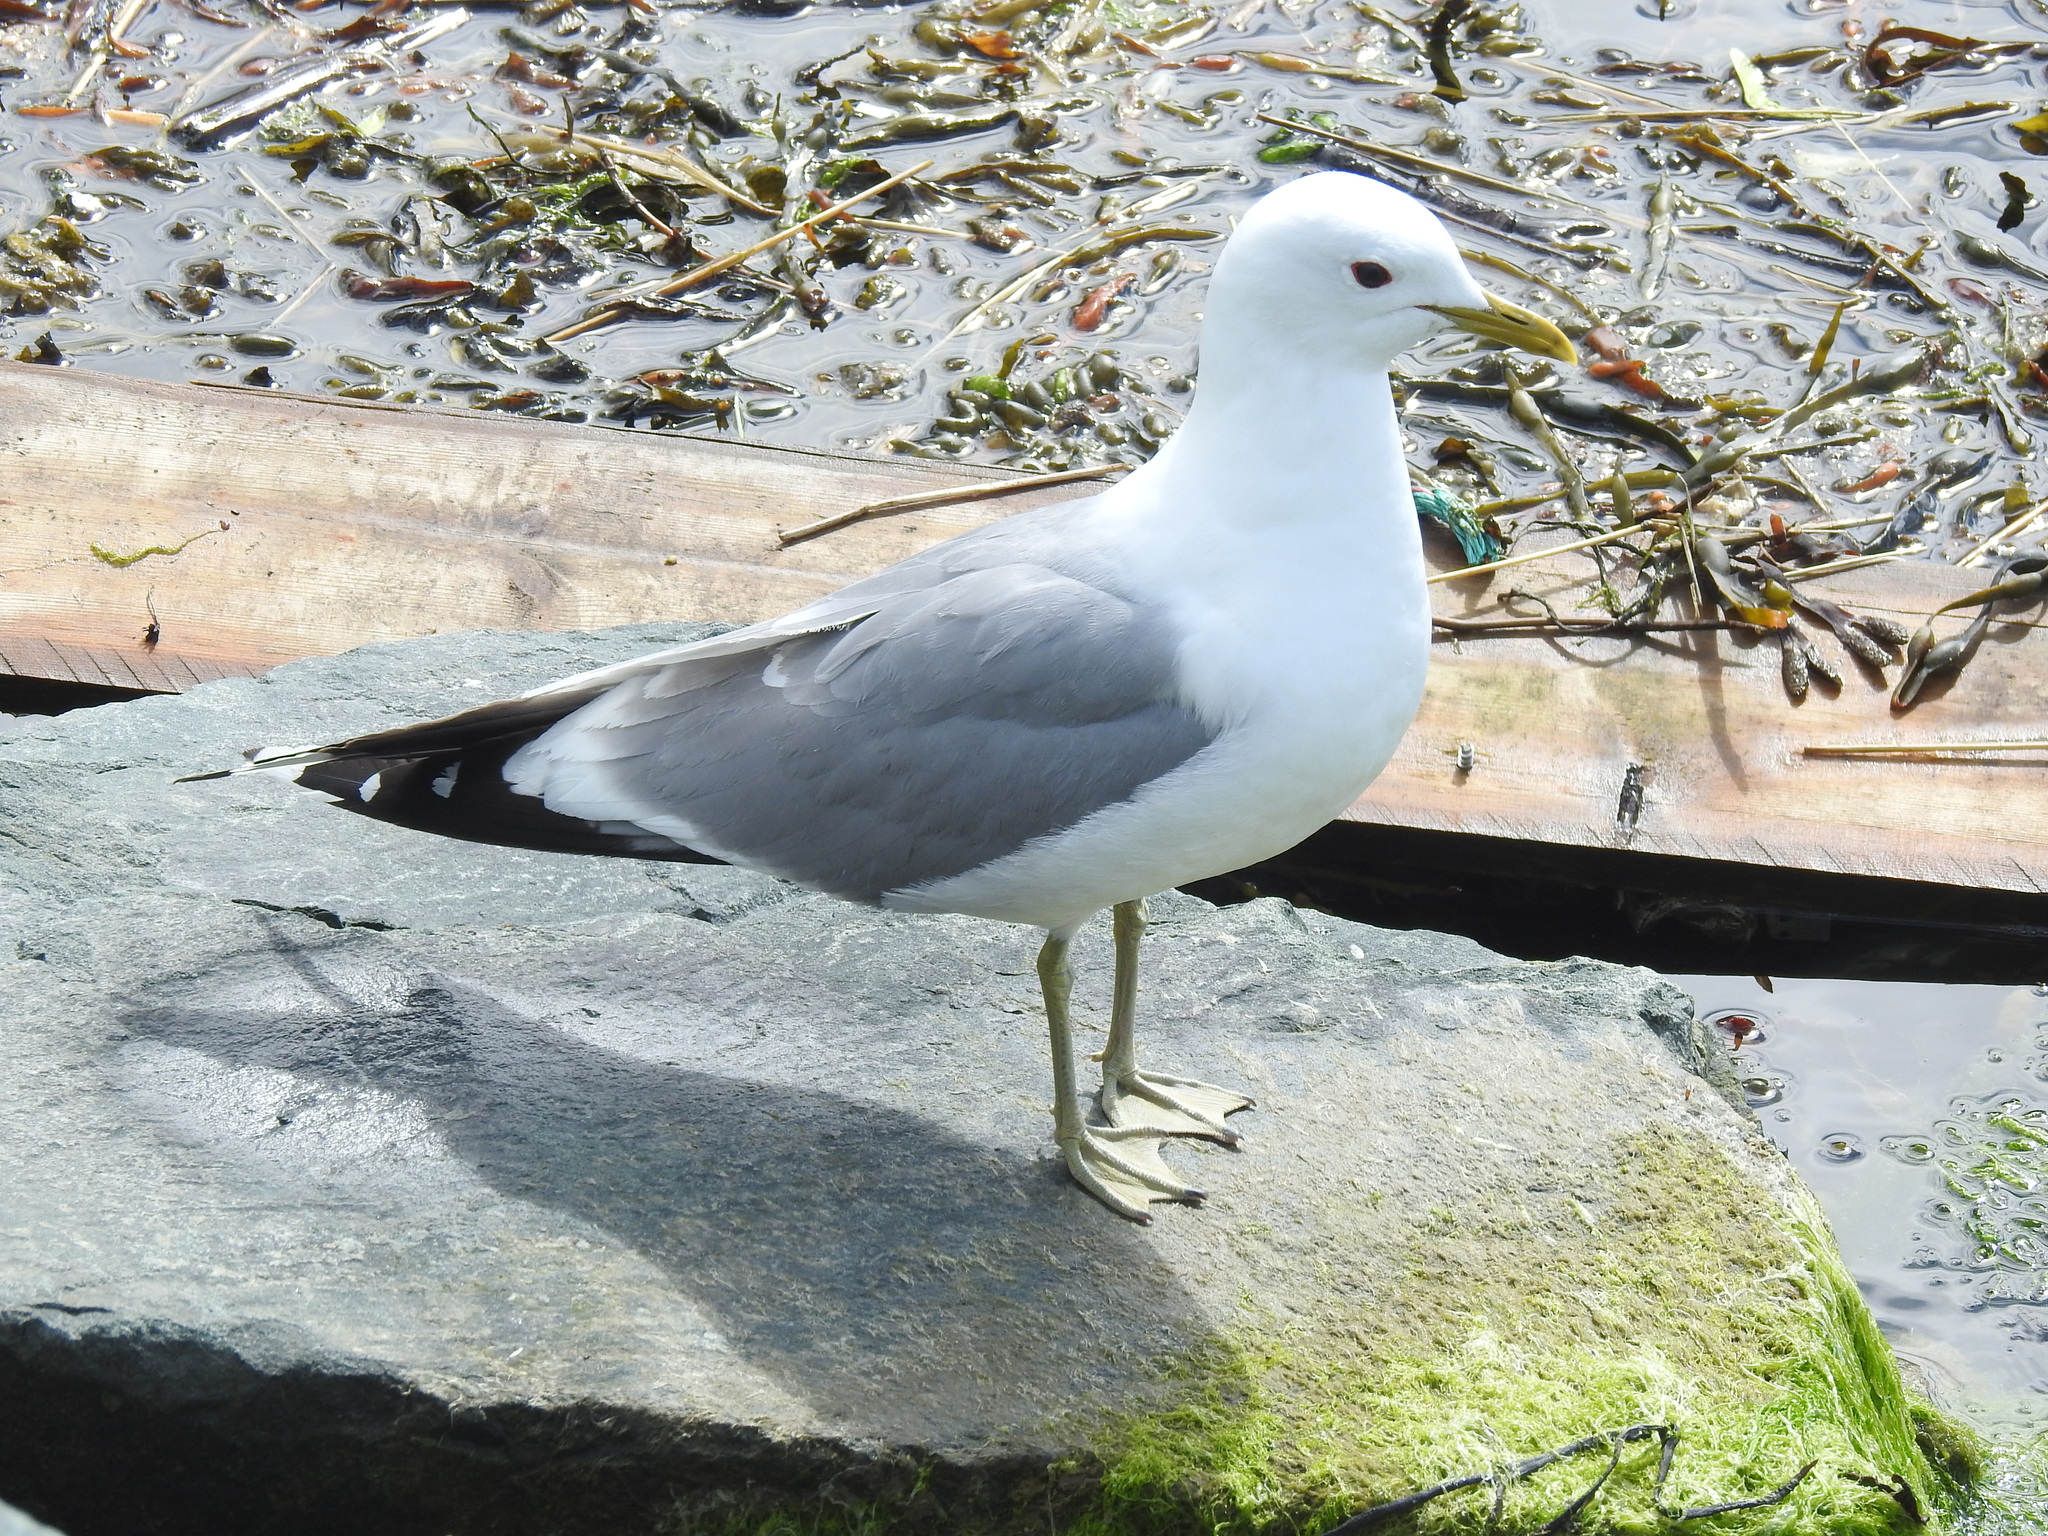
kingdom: Animalia
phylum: Chordata
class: Aves
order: Charadriiformes
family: Laridae
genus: Larus
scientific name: Larus canus
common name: Mew gull
